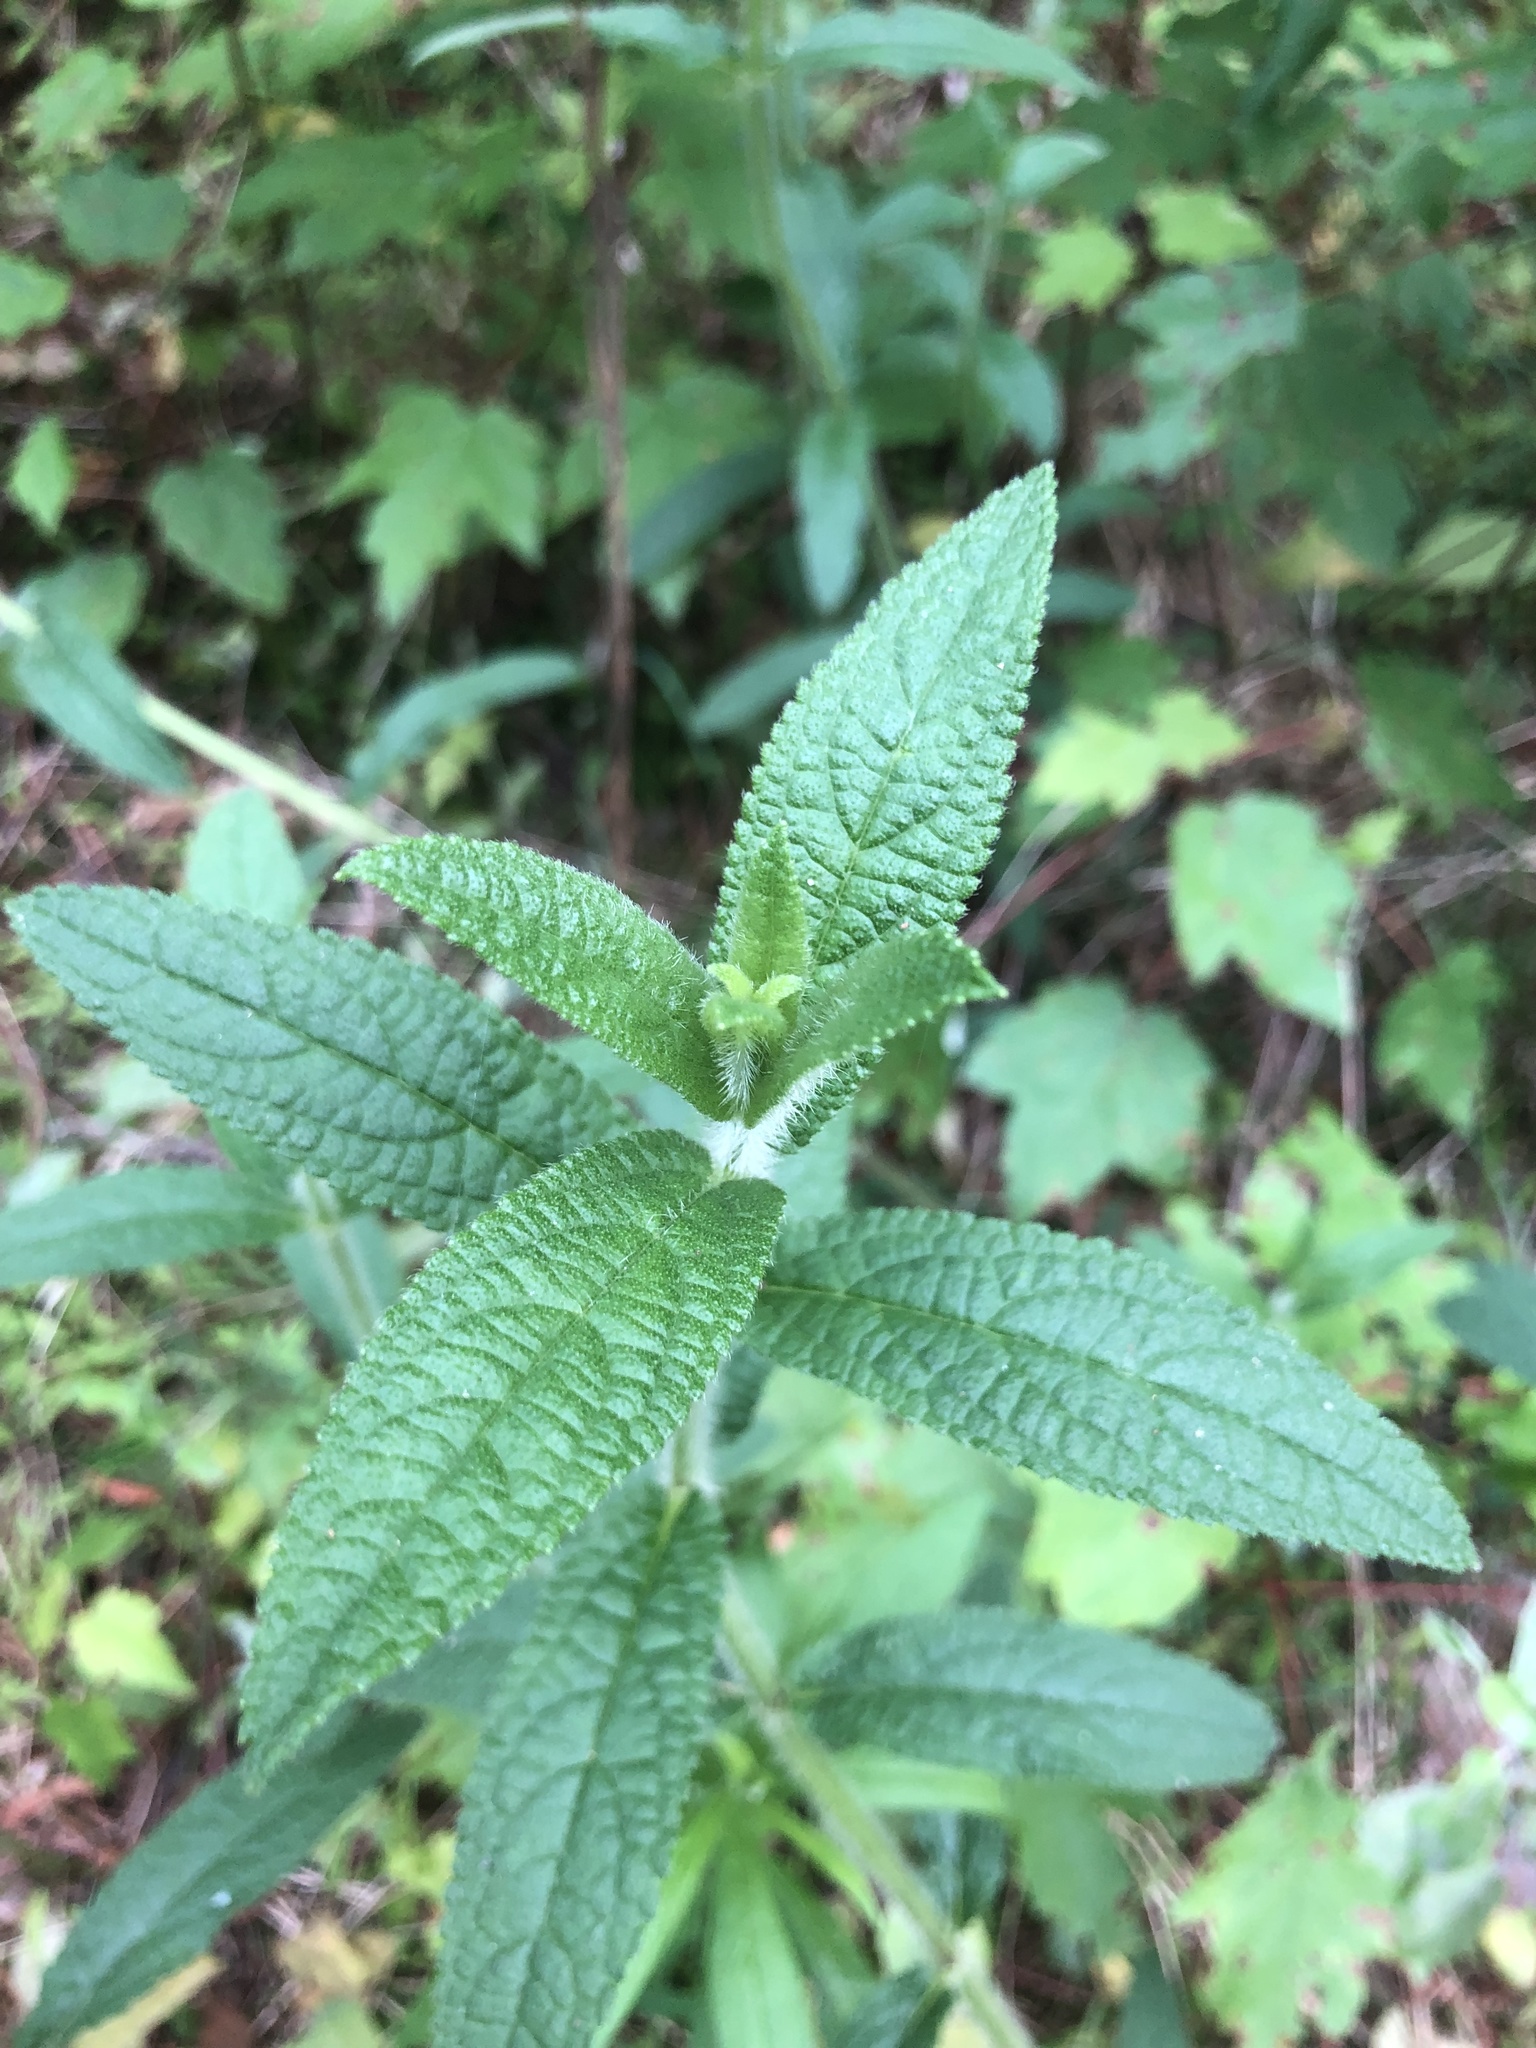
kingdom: Plantae
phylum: Tracheophyta
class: Magnoliopsida
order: Lamiales
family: Lamiaceae
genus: Stachys
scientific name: Stachys matthewsii
